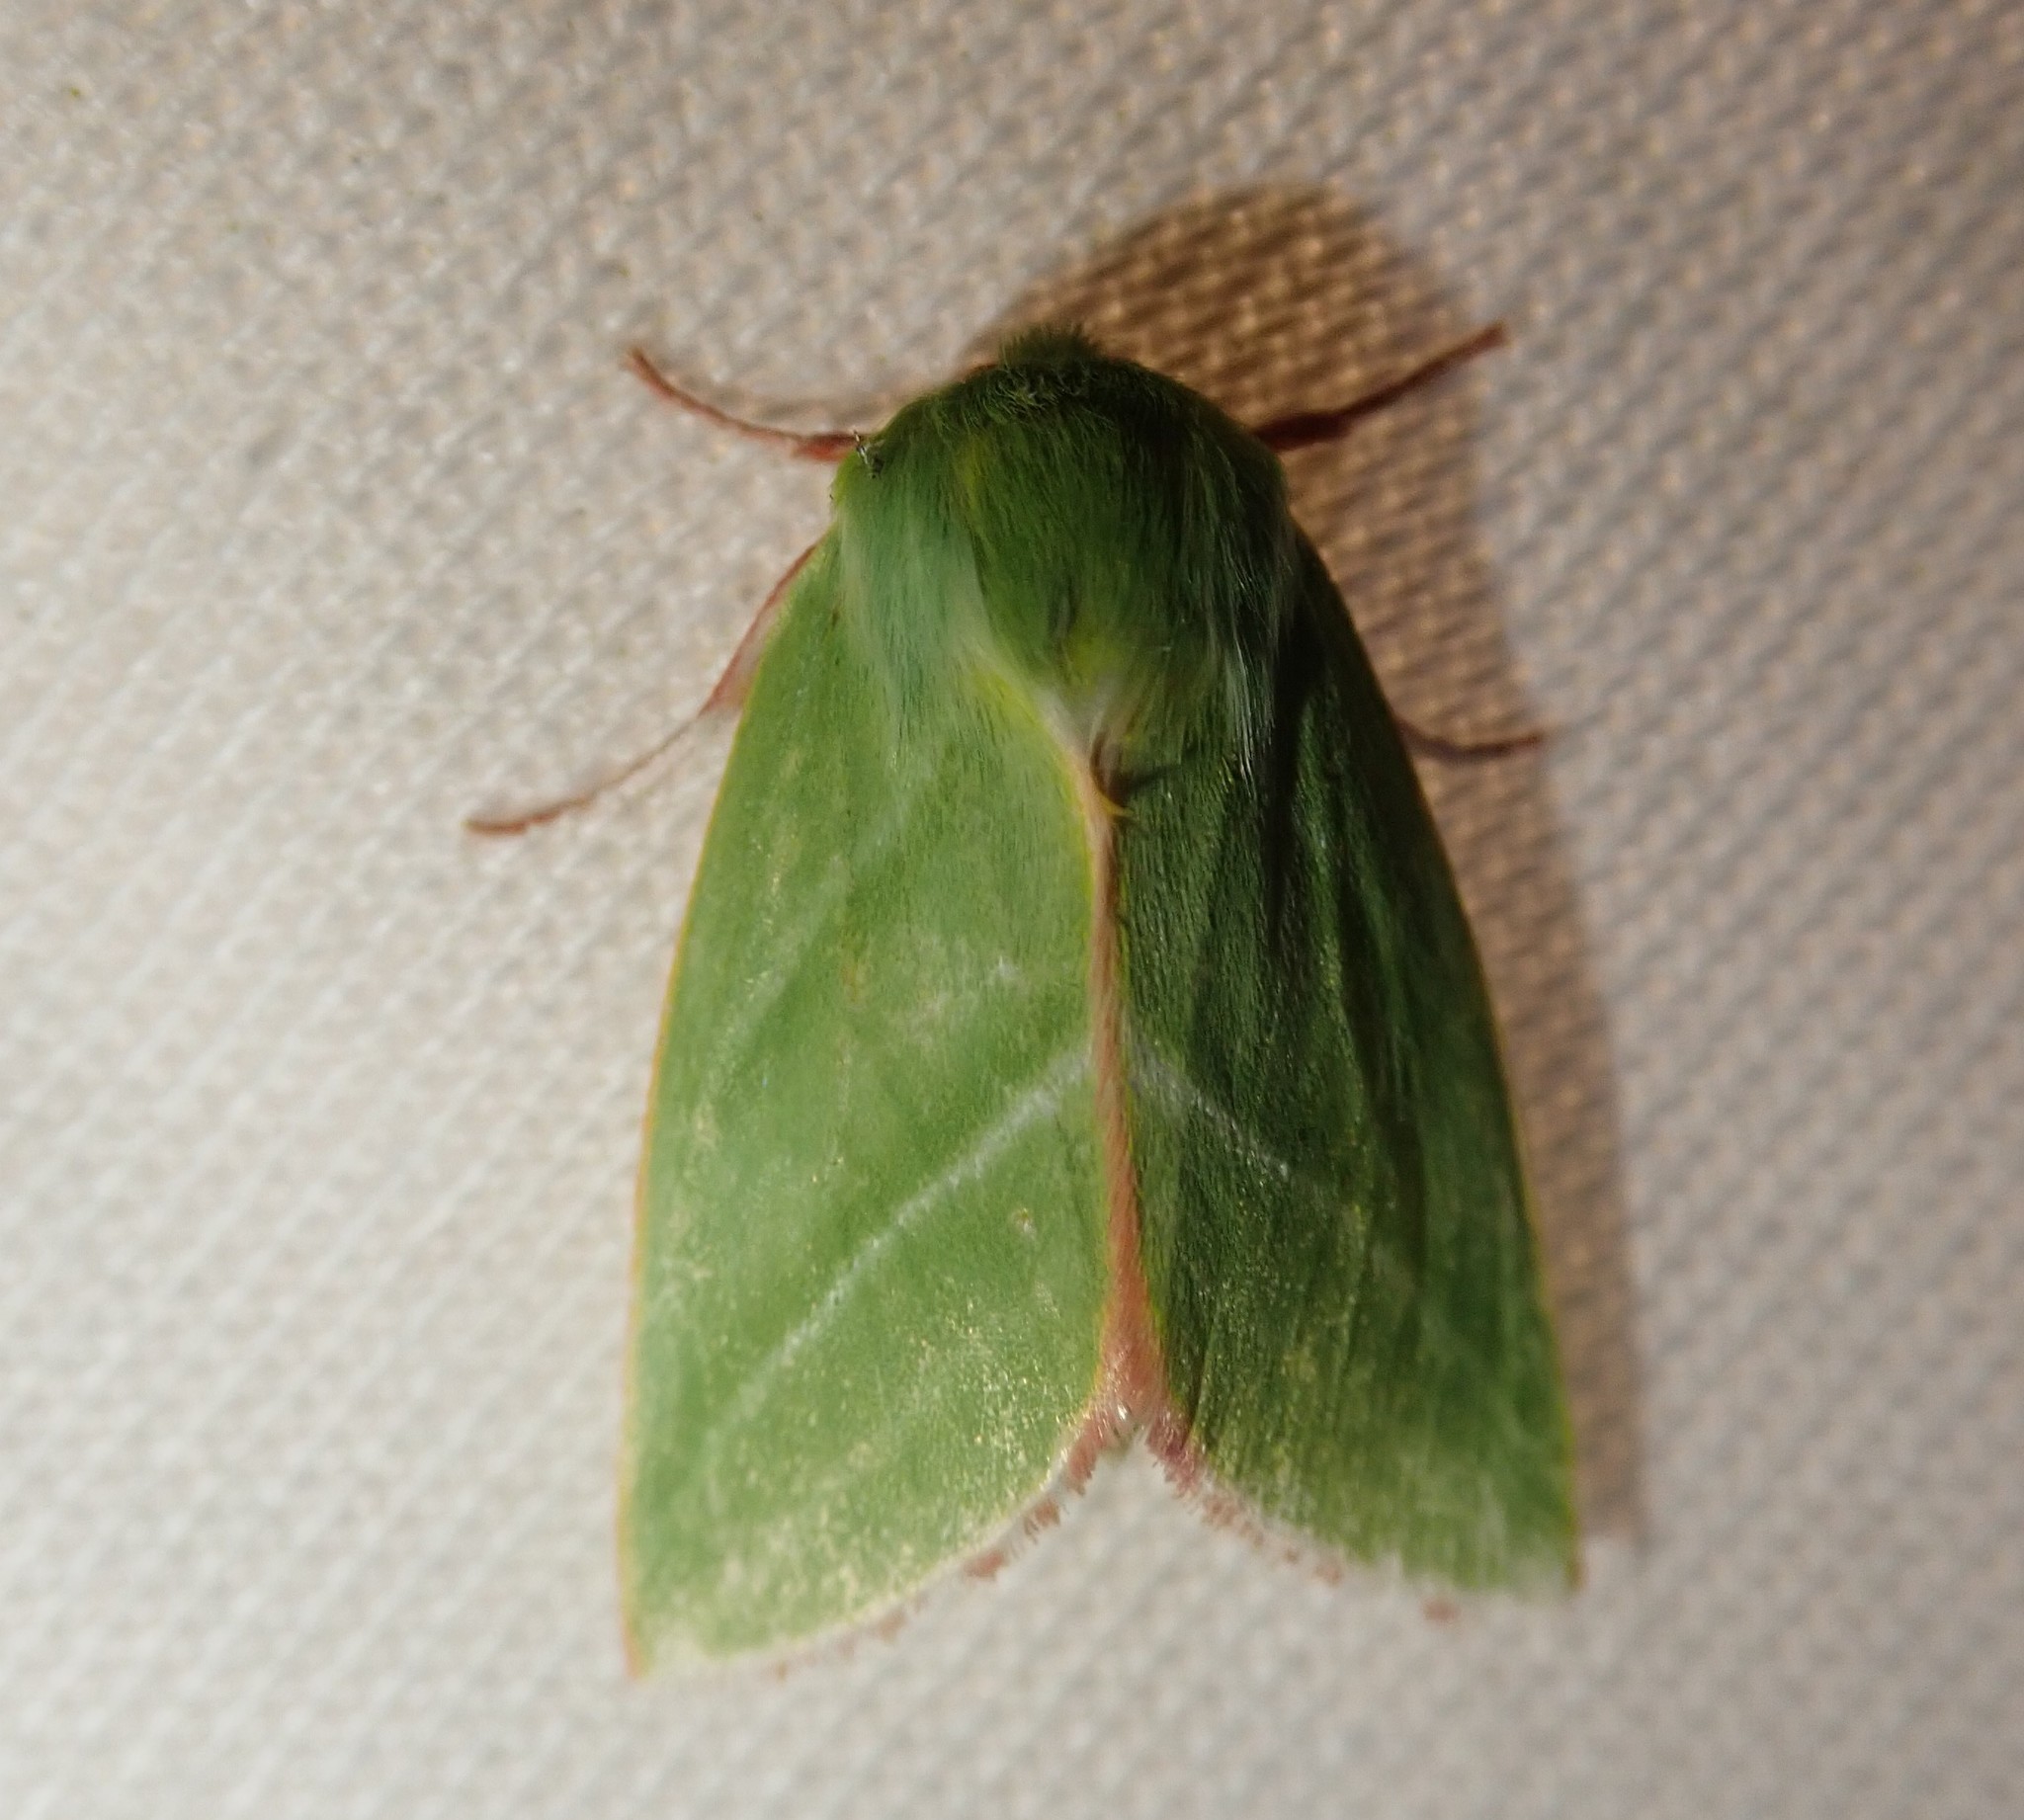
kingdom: Animalia
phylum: Arthropoda
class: Insecta
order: Lepidoptera
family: Nolidae
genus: Pseudoips
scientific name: Pseudoips prasinana
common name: Green silver-lines
